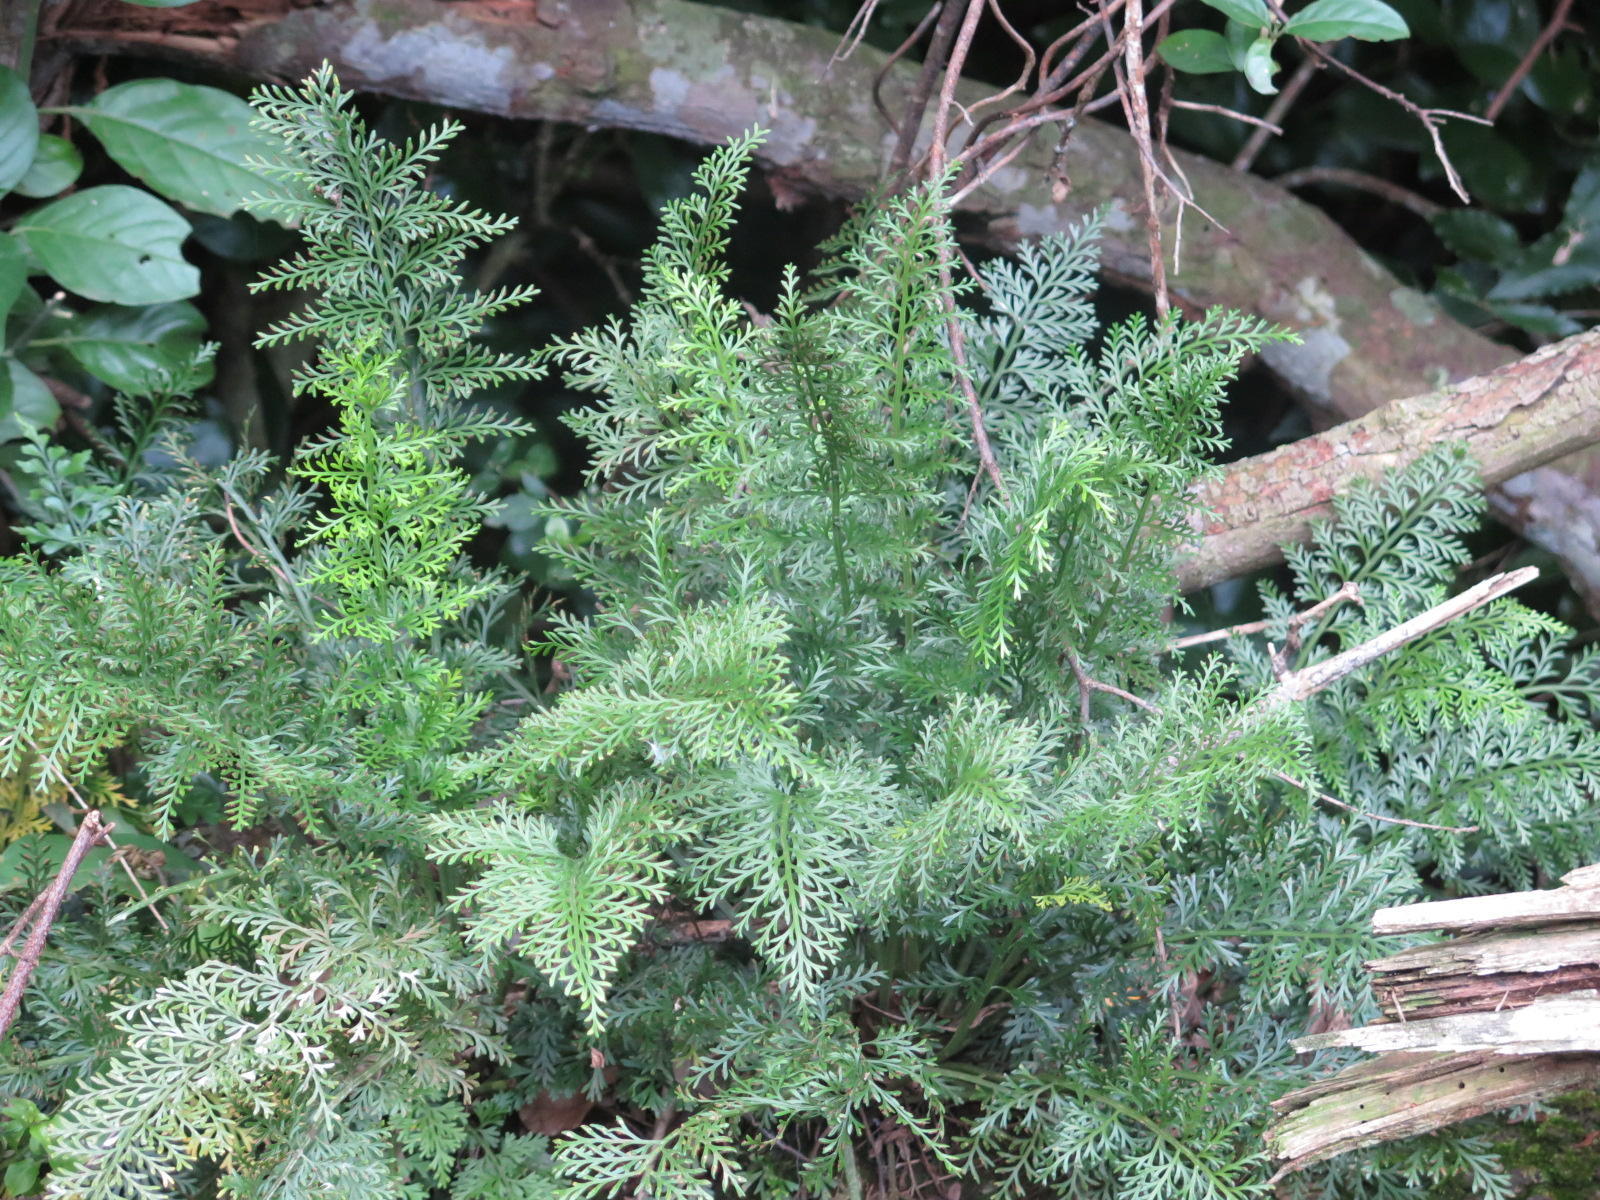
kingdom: Plantae
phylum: Tracheophyta
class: Polypodiopsida
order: Polypodiales
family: Aspleniaceae
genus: Asplenium
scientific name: Asplenium rutifolium
